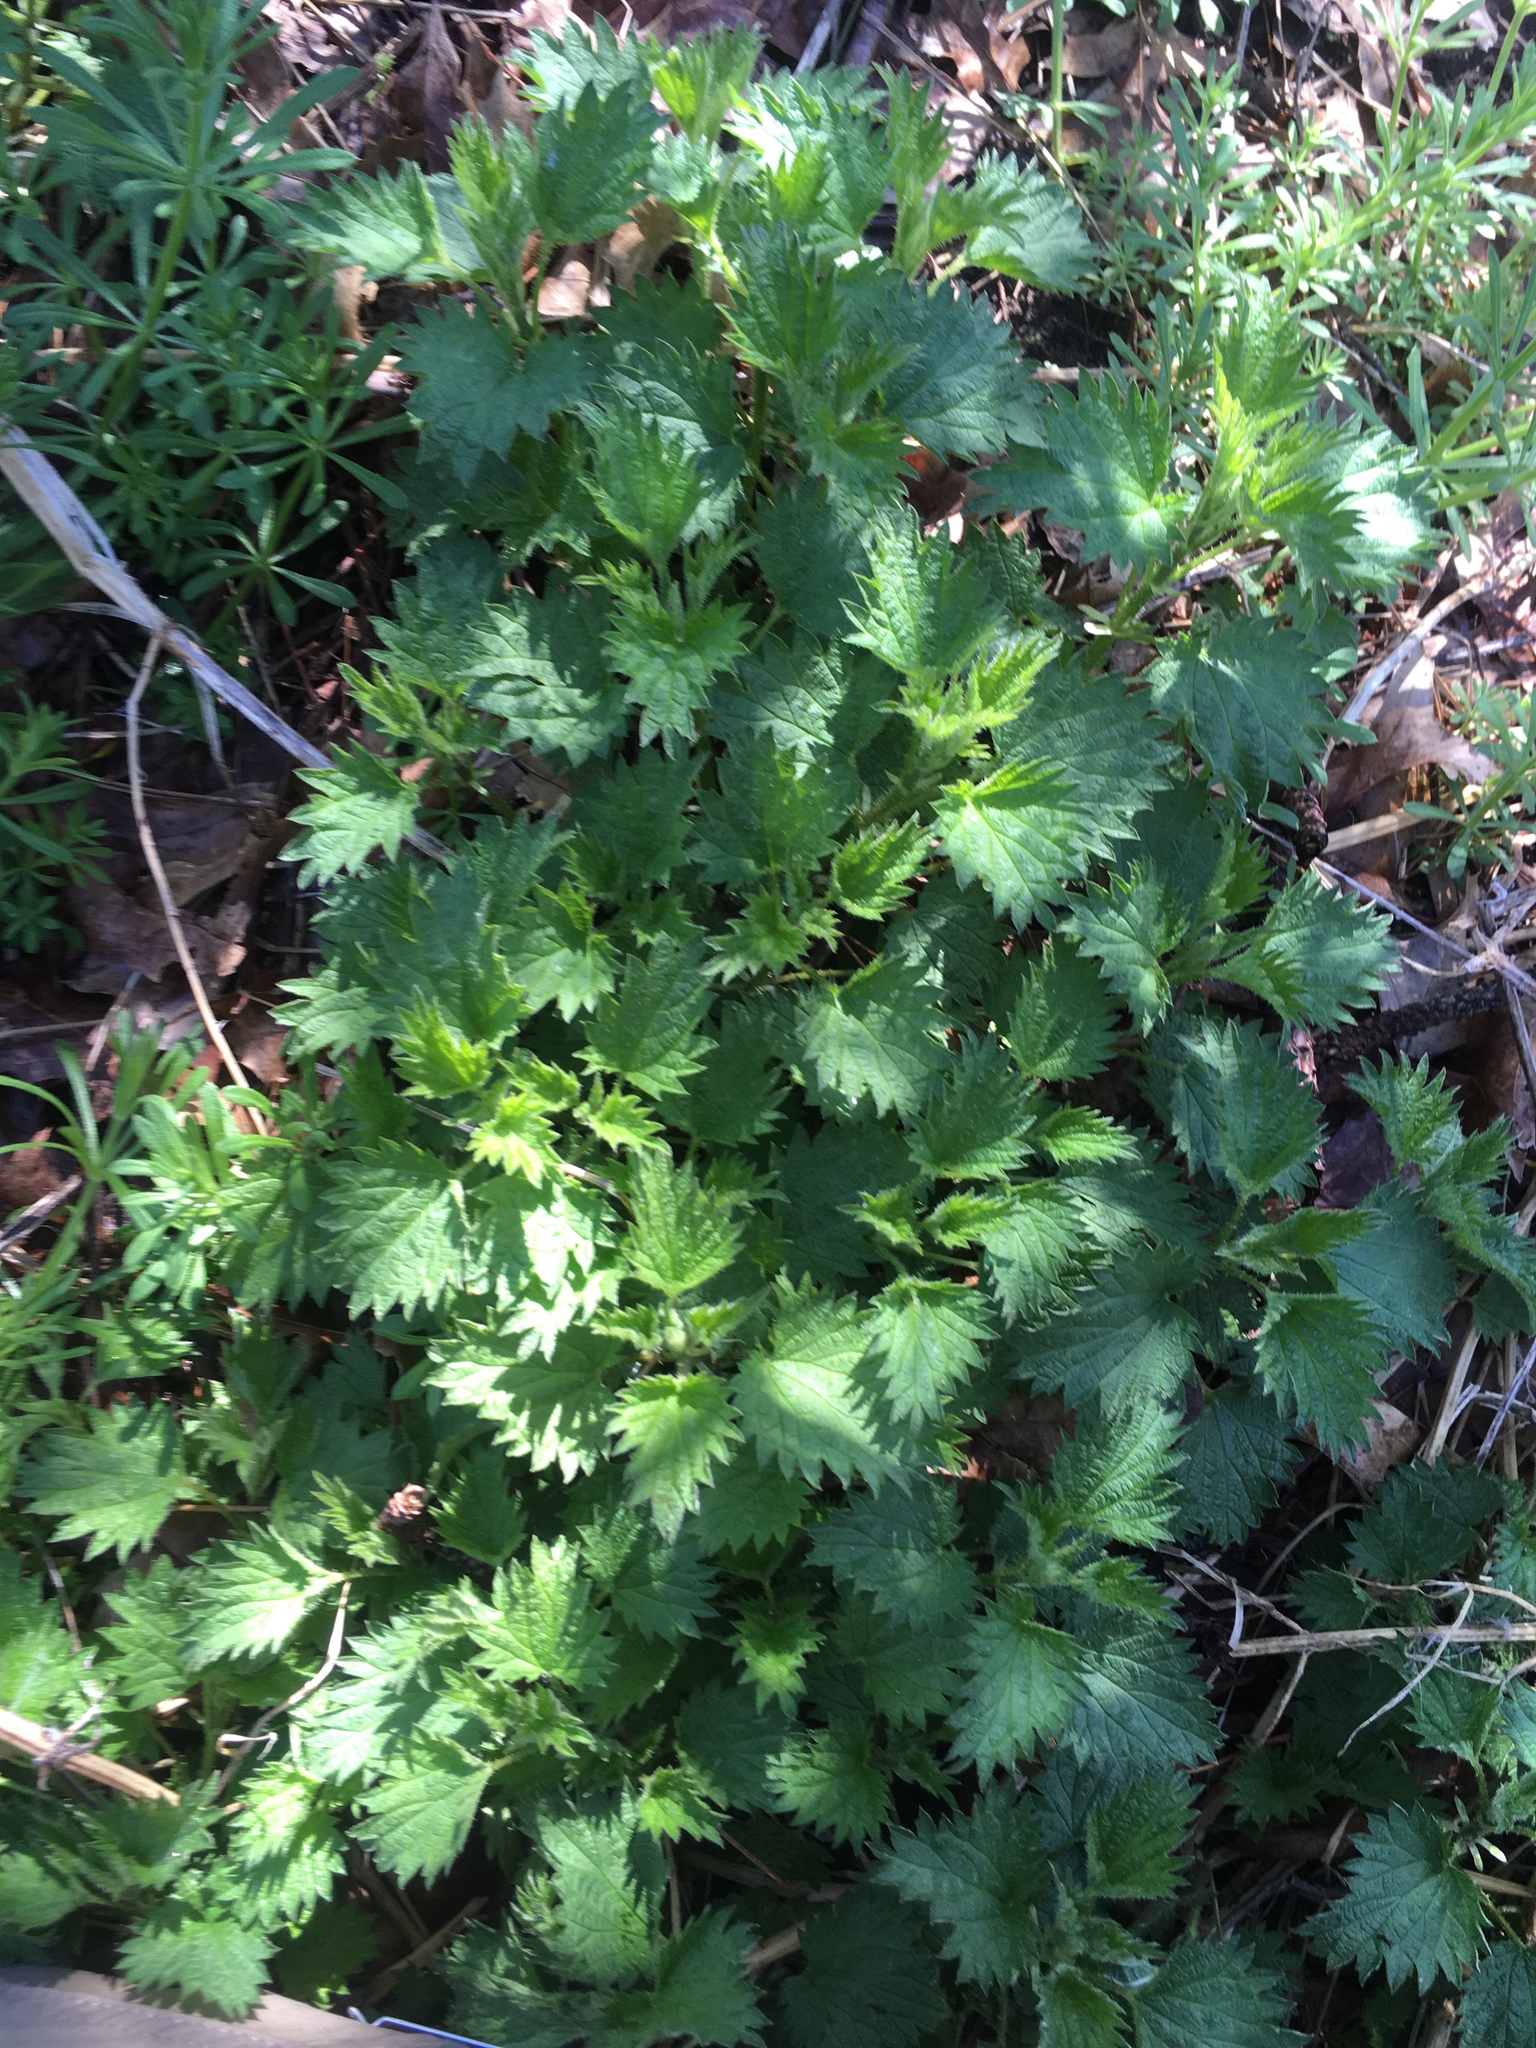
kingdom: Plantae
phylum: Tracheophyta
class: Magnoliopsida
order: Rosales
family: Urticaceae
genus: Urtica
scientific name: Urtica dioica
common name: Common nettle
